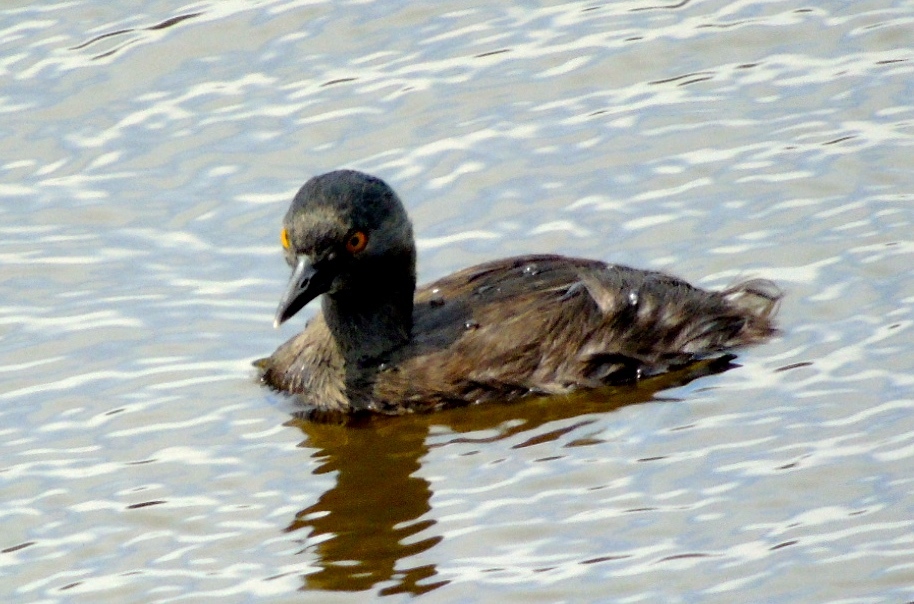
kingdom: Animalia
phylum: Chordata
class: Aves
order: Podicipediformes
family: Podicipedidae
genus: Tachybaptus
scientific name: Tachybaptus dominicus
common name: Least grebe
